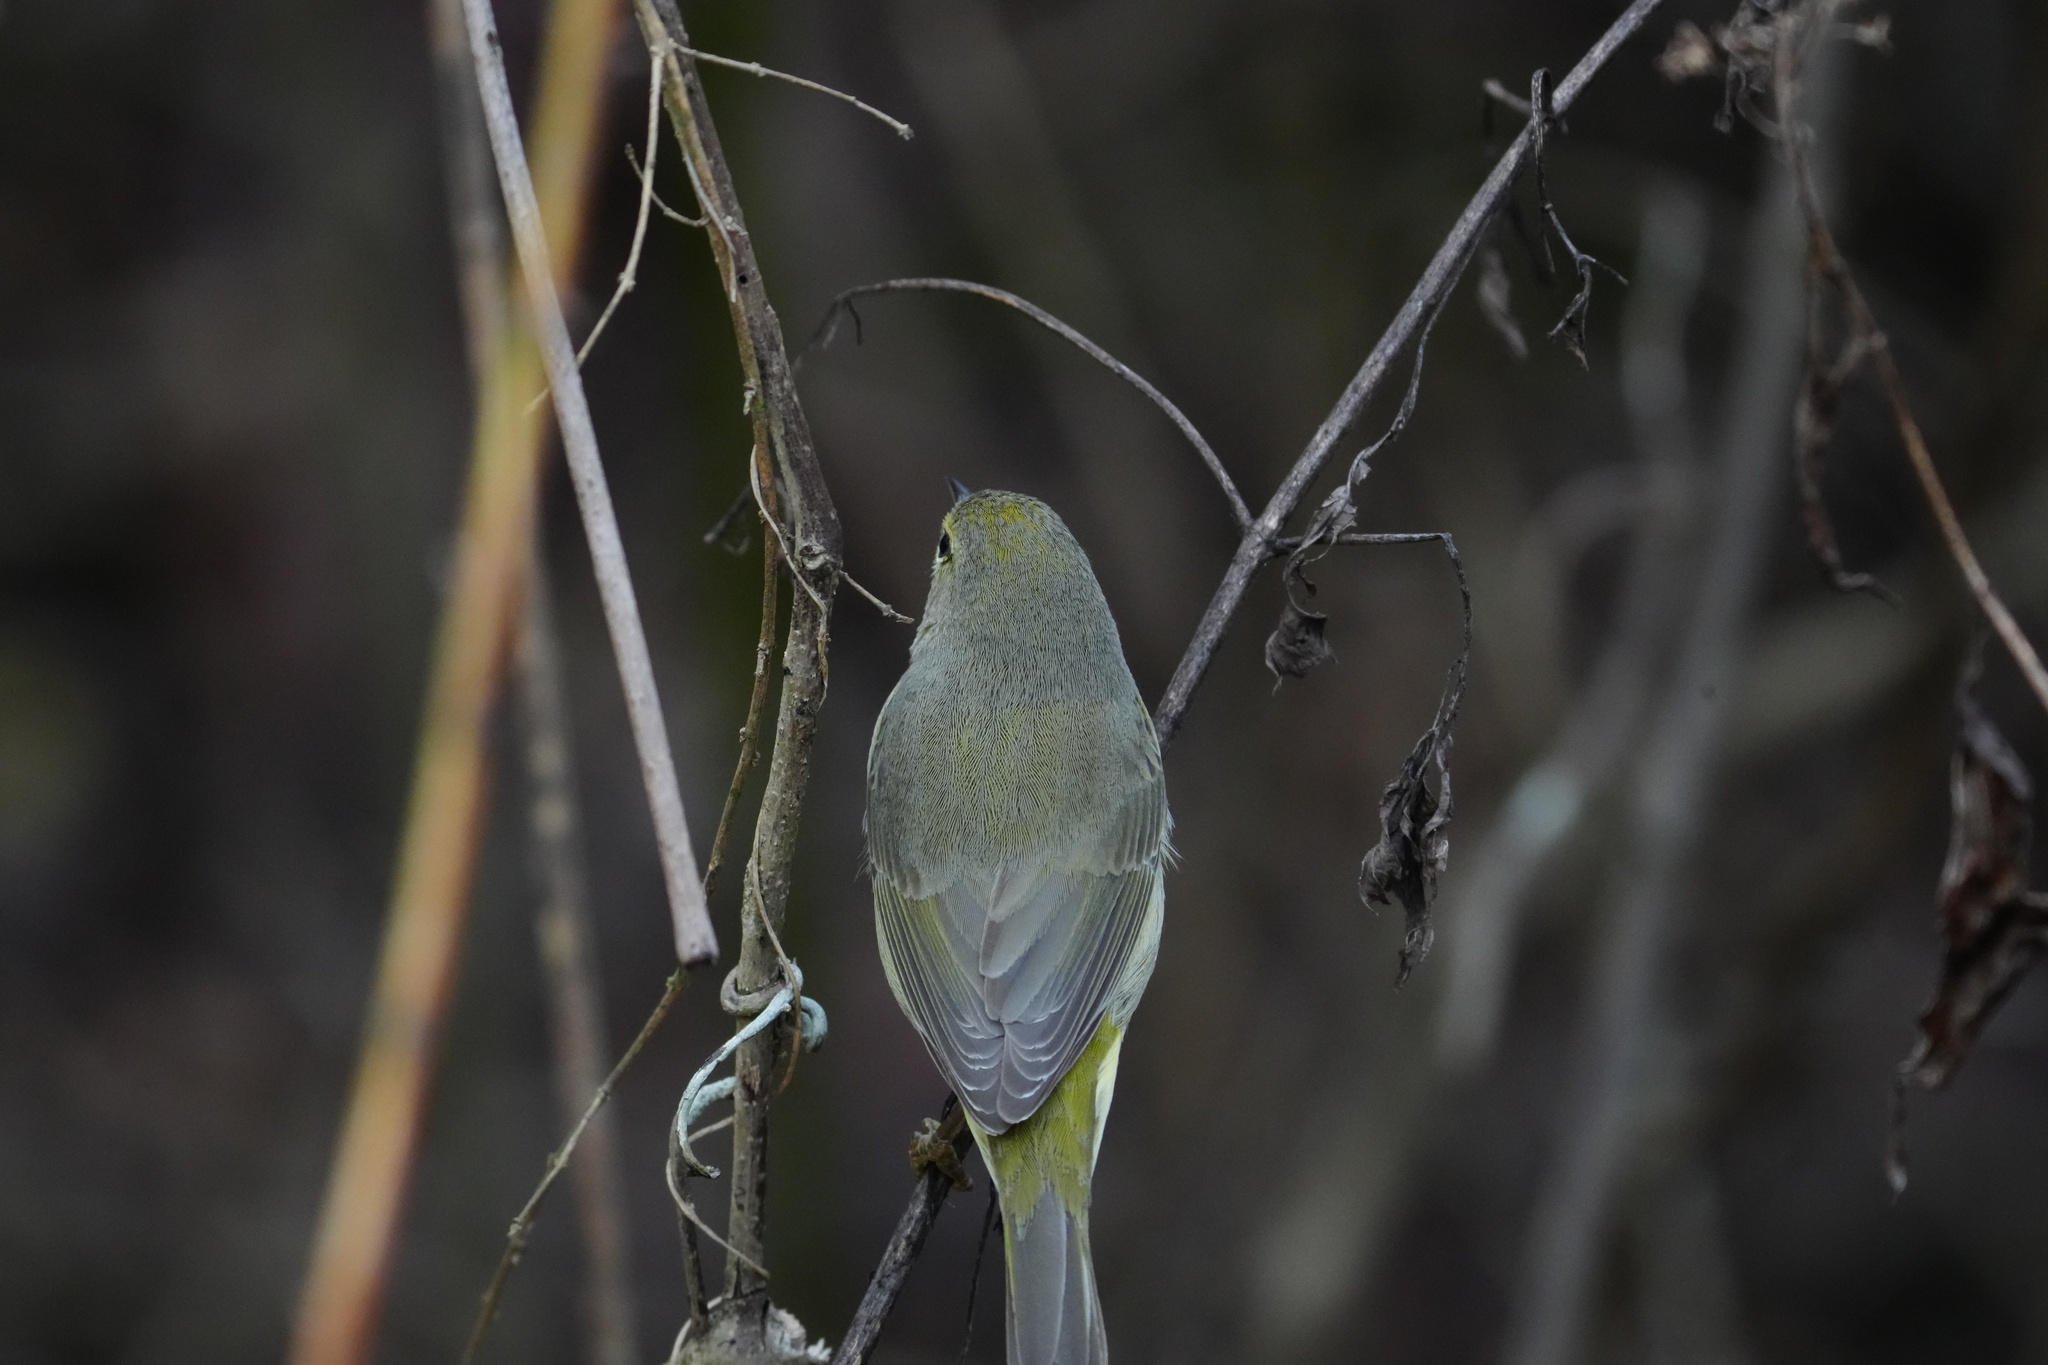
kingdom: Animalia
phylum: Chordata
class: Aves
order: Passeriformes
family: Parulidae
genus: Leiothlypis
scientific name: Leiothlypis celata
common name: Orange-crowned warbler
